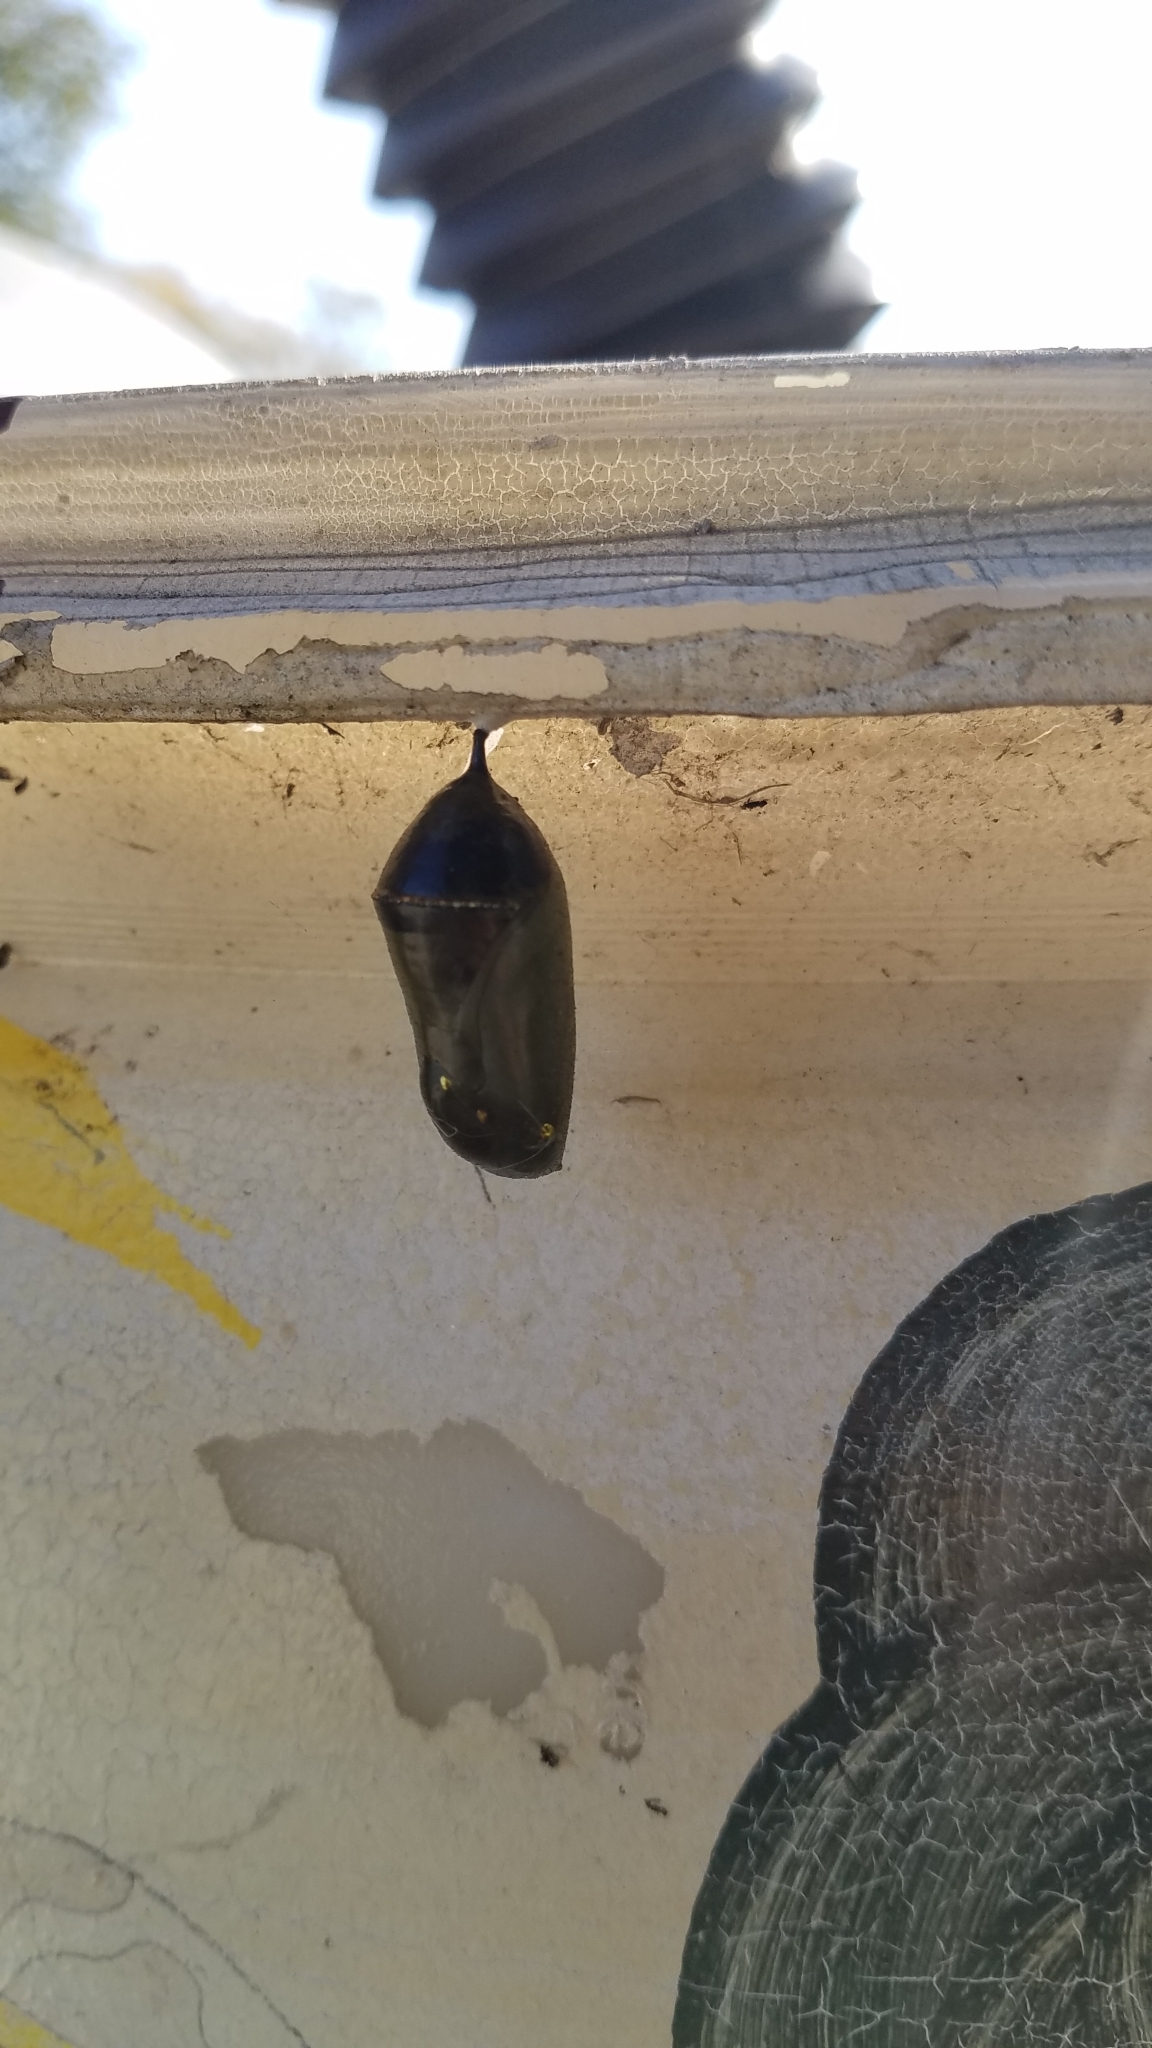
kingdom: Animalia
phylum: Arthropoda
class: Insecta
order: Lepidoptera
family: Nymphalidae
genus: Danaus
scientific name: Danaus plexippus
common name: Monarch
